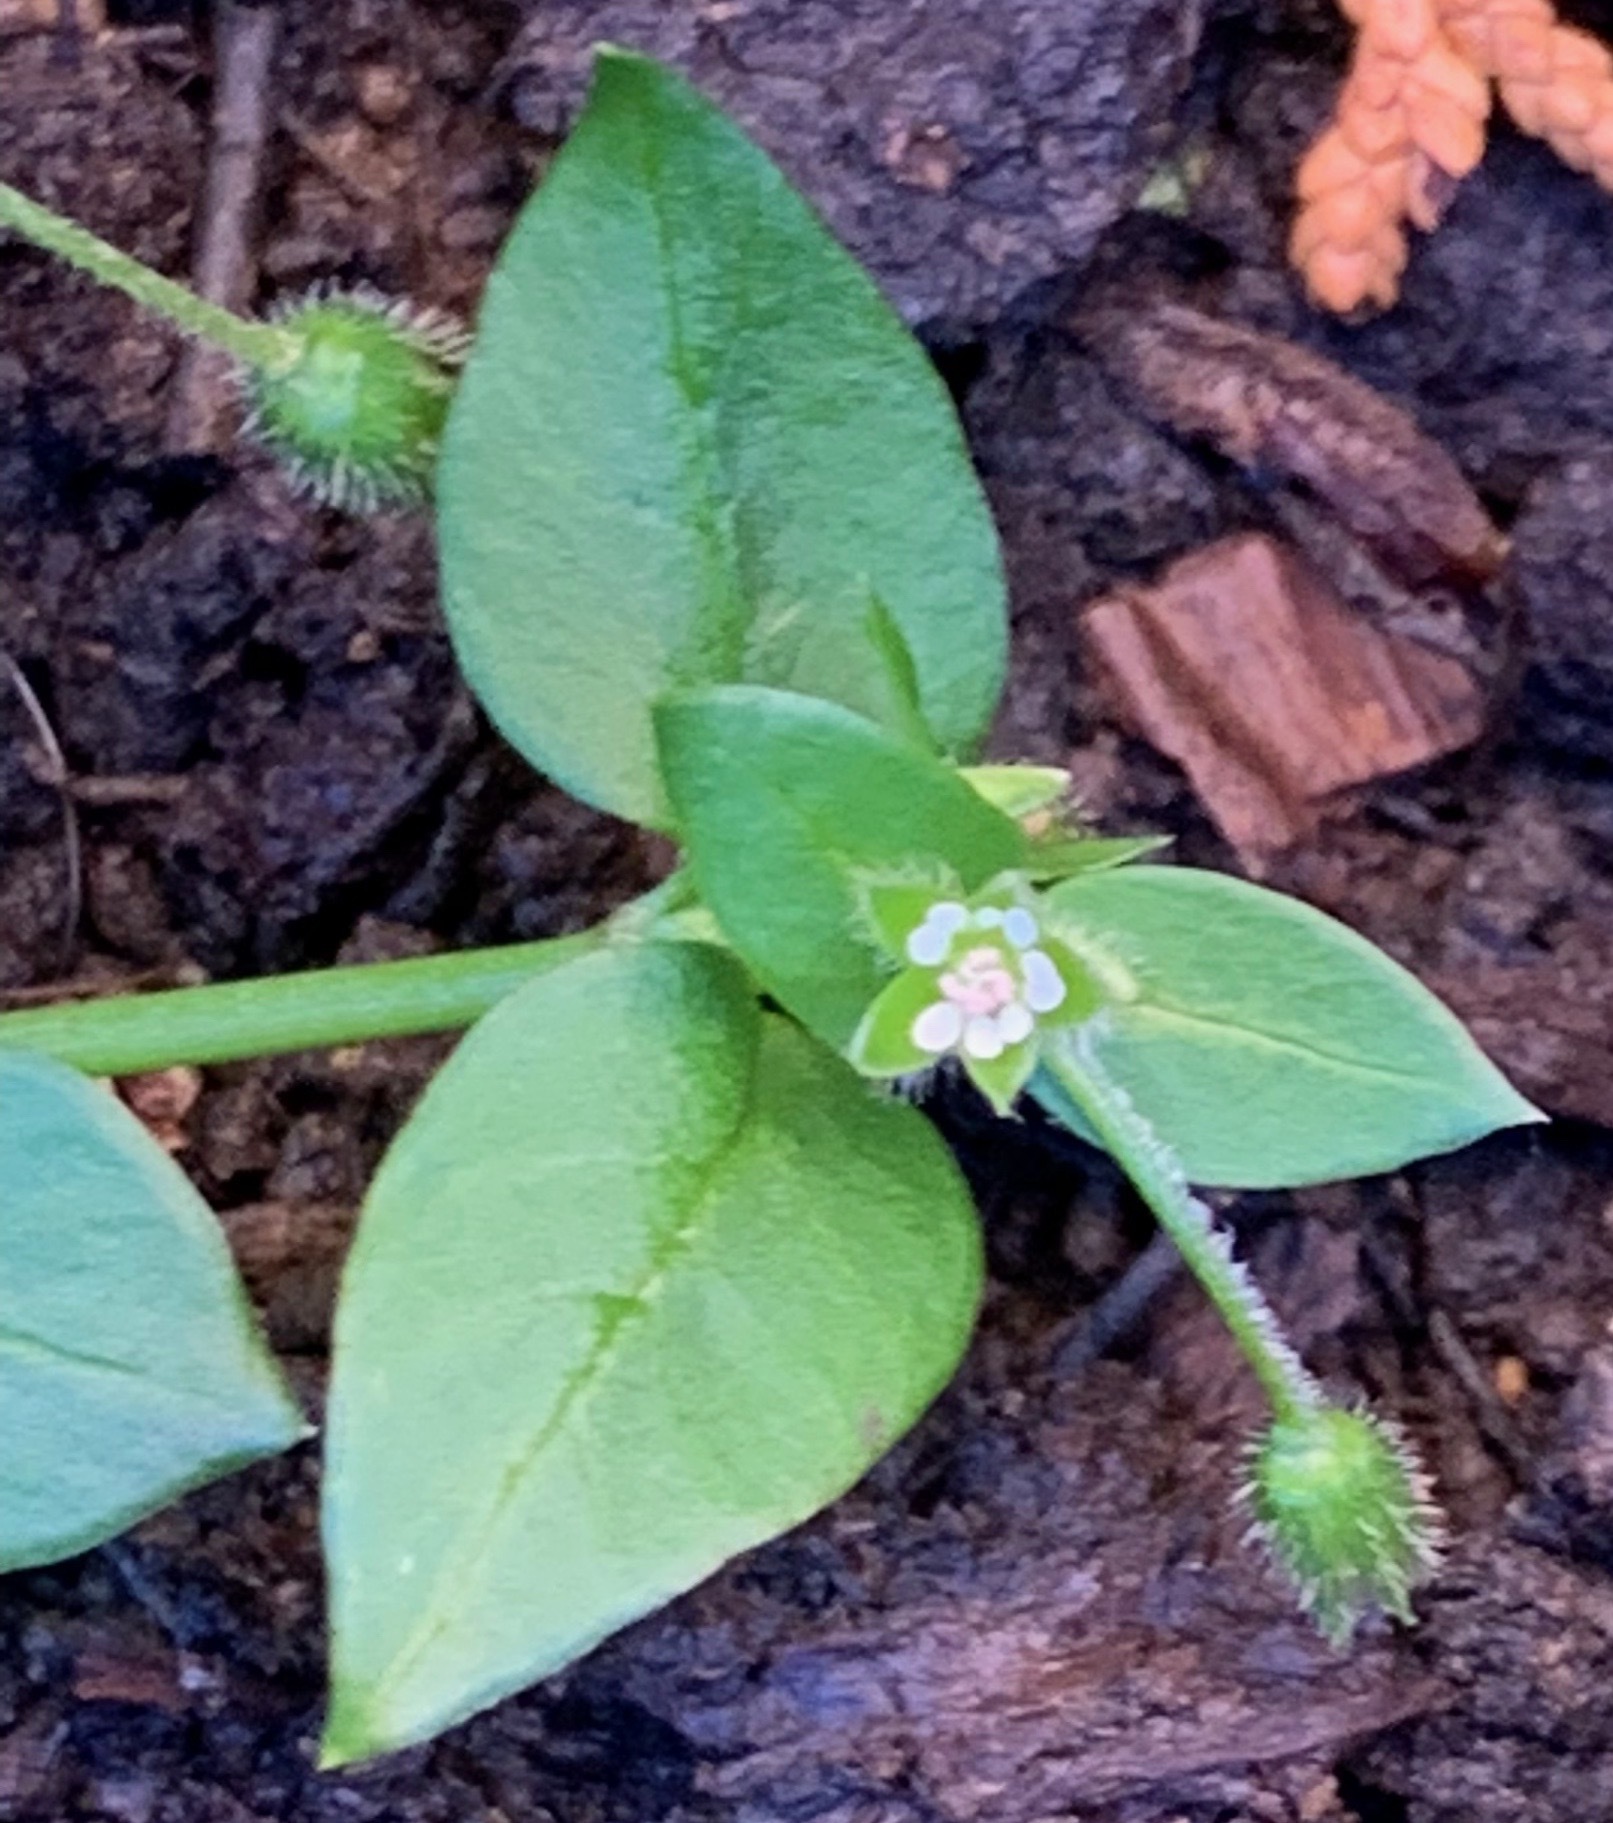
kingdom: Plantae
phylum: Tracheophyta
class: Magnoliopsida
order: Caryophyllales
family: Caryophyllaceae
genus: Stellaria
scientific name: Stellaria media
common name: Common chickweed
